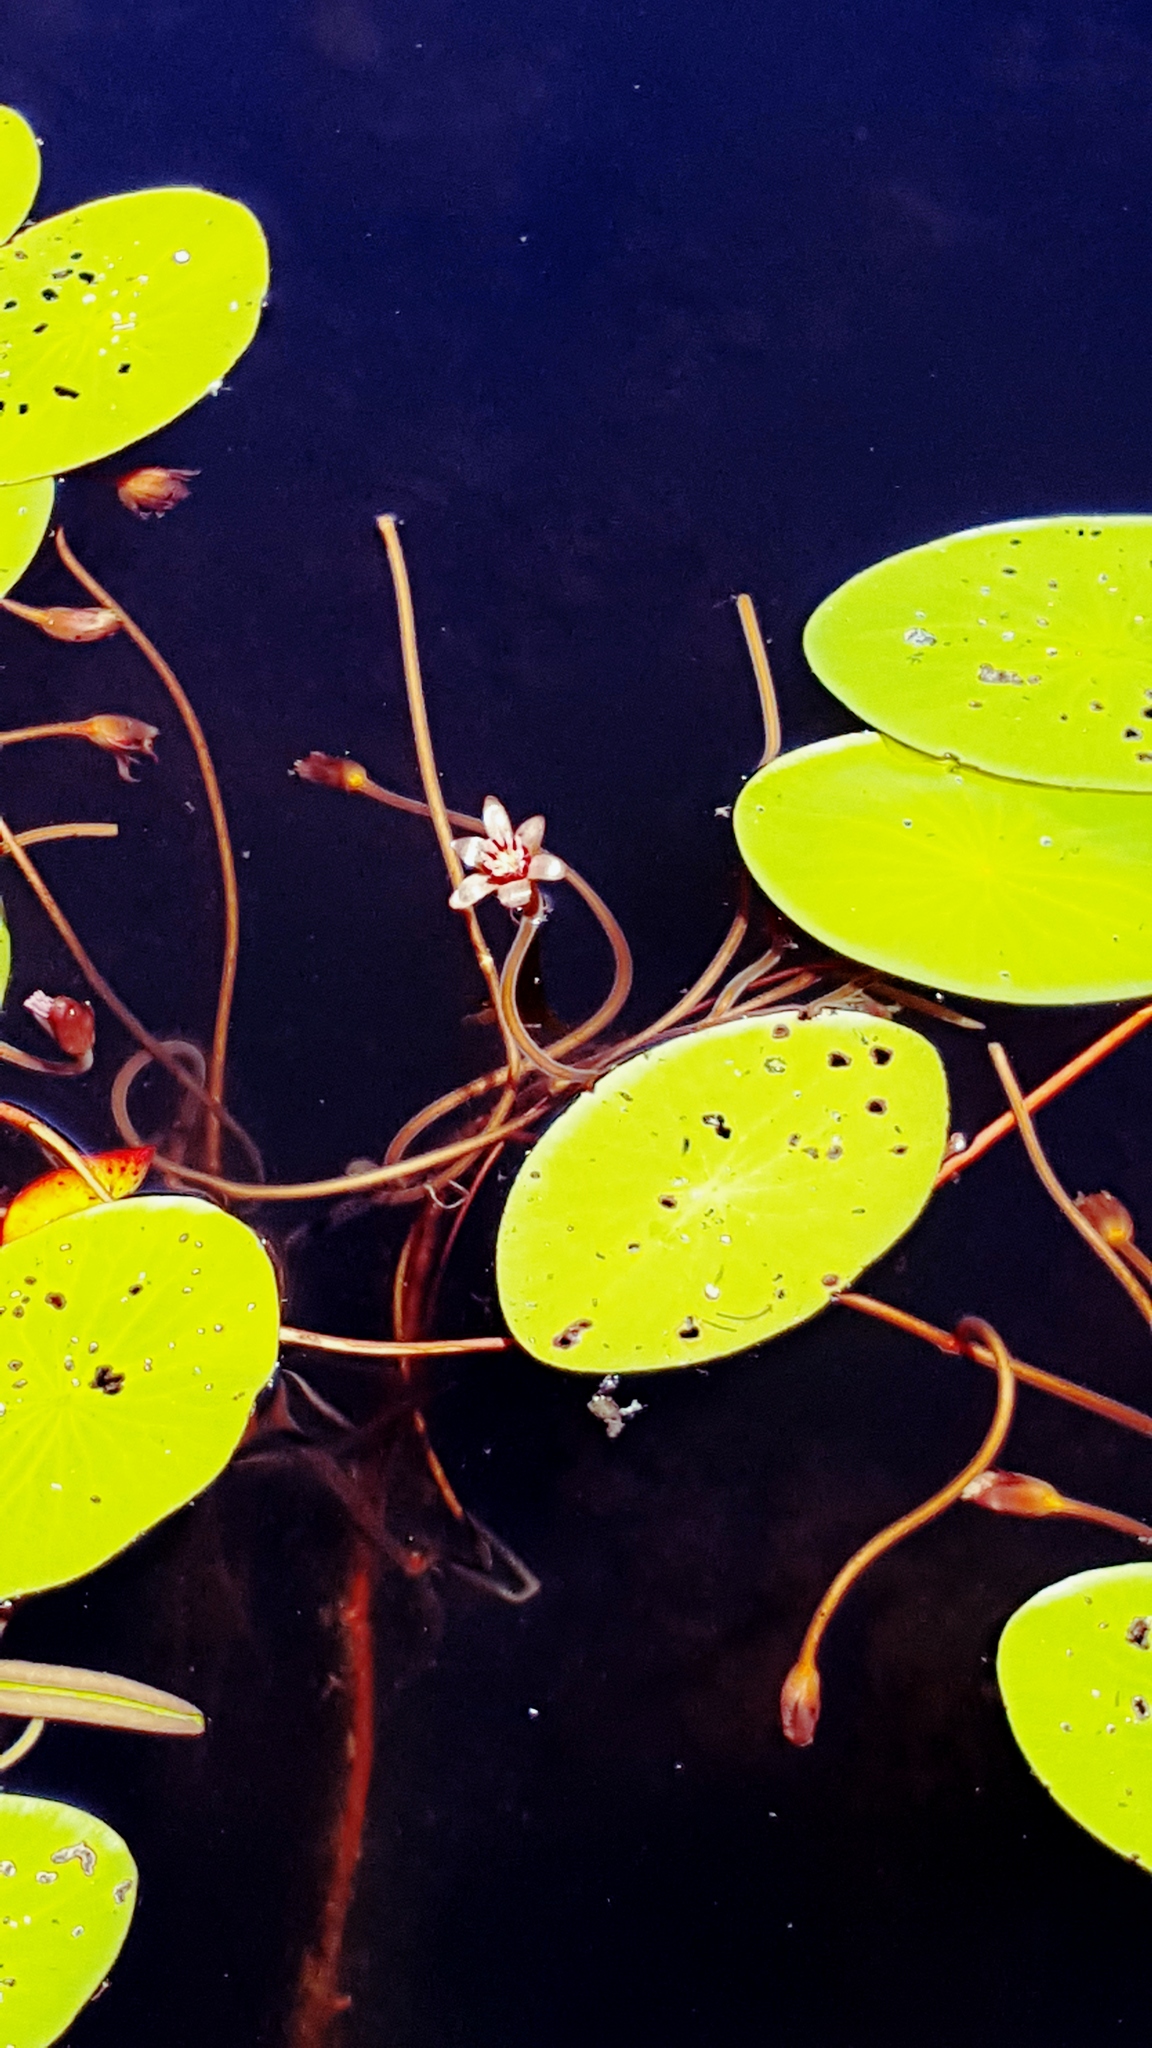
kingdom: Plantae
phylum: Tracheophyta
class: Magnoliopsida
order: Nymphaeales
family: Cabombaceae
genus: Brasenia
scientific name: Brasenia schreberi
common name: Water-shield
